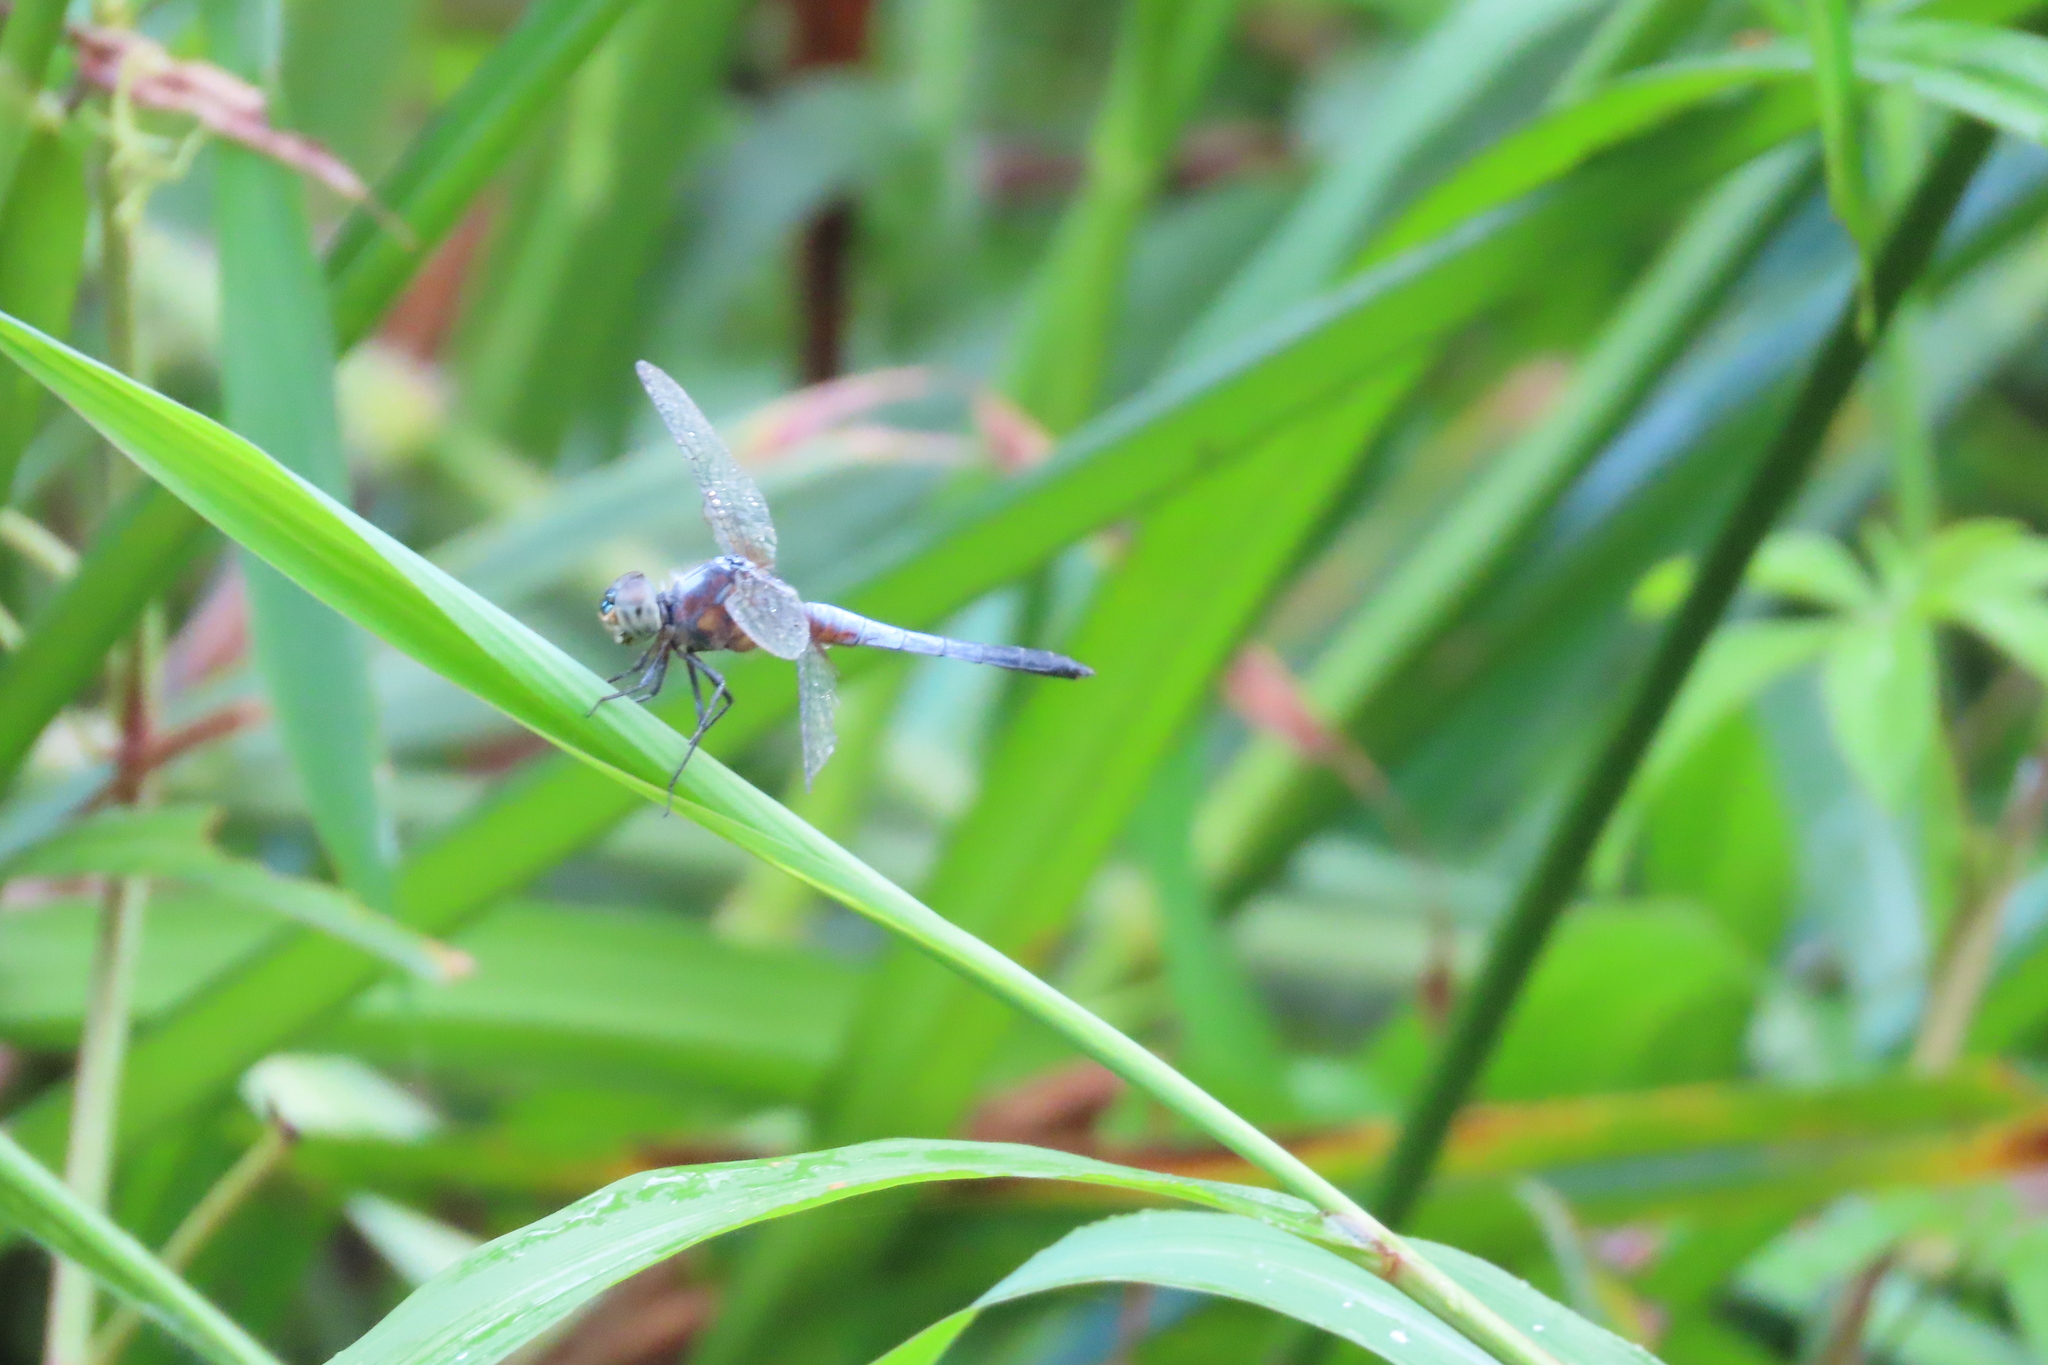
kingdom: Animalia
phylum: Arthropoda
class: Insecta
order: Odonata
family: Libellulidae
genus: Brachydiplax
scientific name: Brachydiplax chalybea
